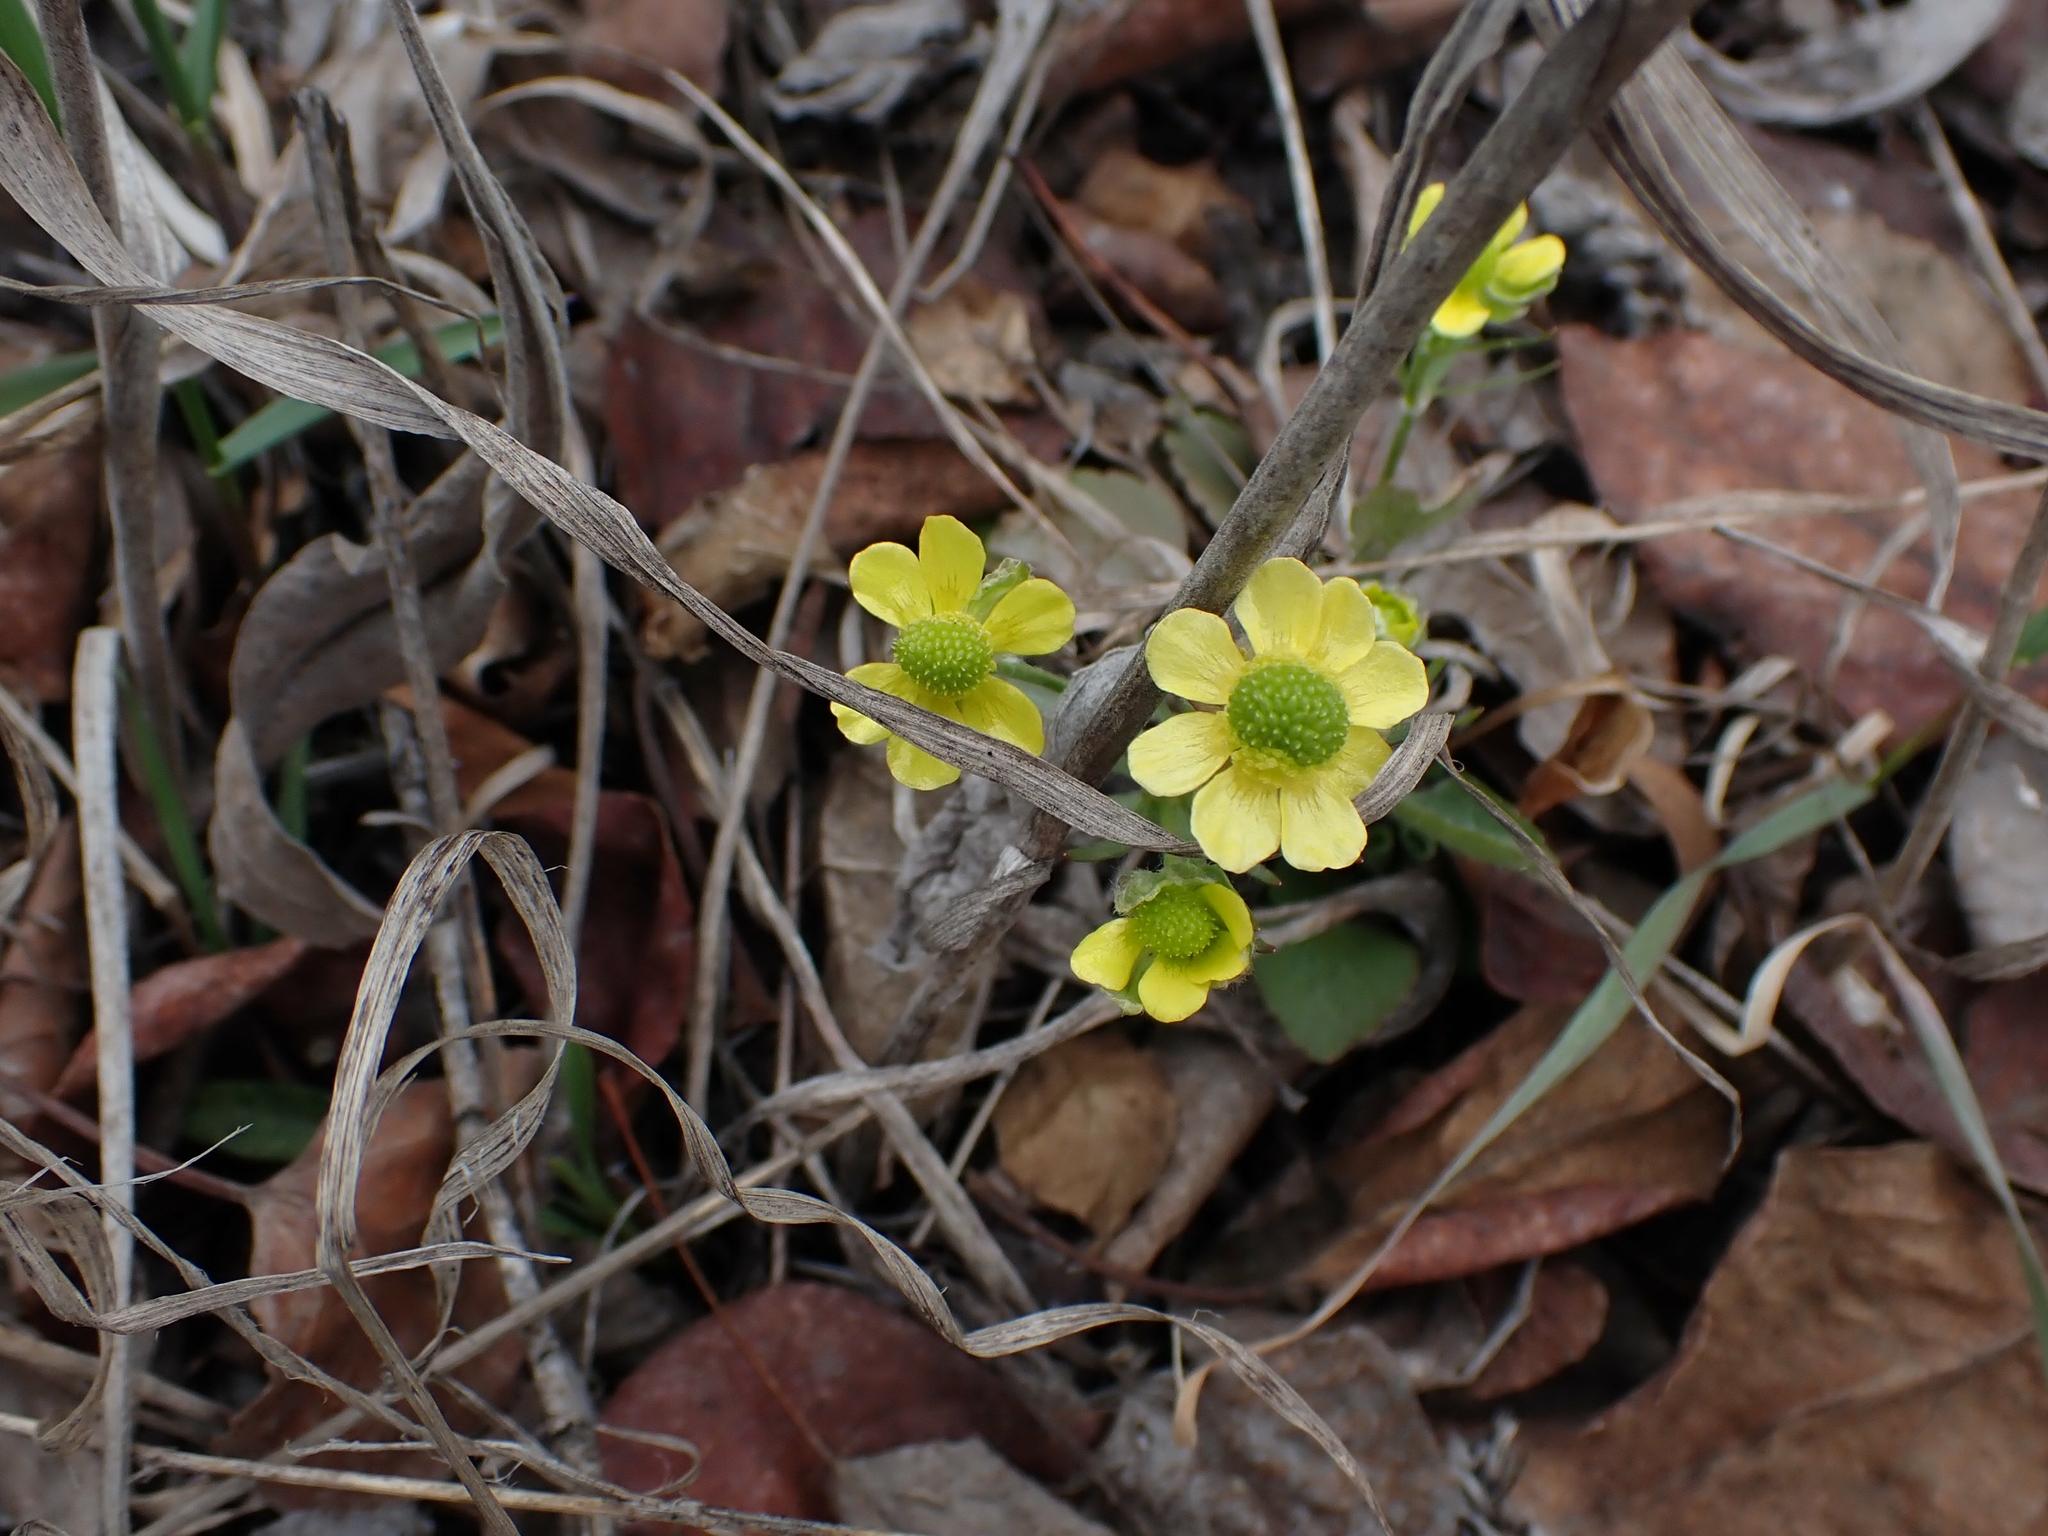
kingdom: Plantae
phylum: Tracheophyta
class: Magnoliopsida
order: Ranunculales
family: Ranunculaceae
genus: Ranunculus
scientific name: Ranunculus rhomboideus
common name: Prairie buttercup
